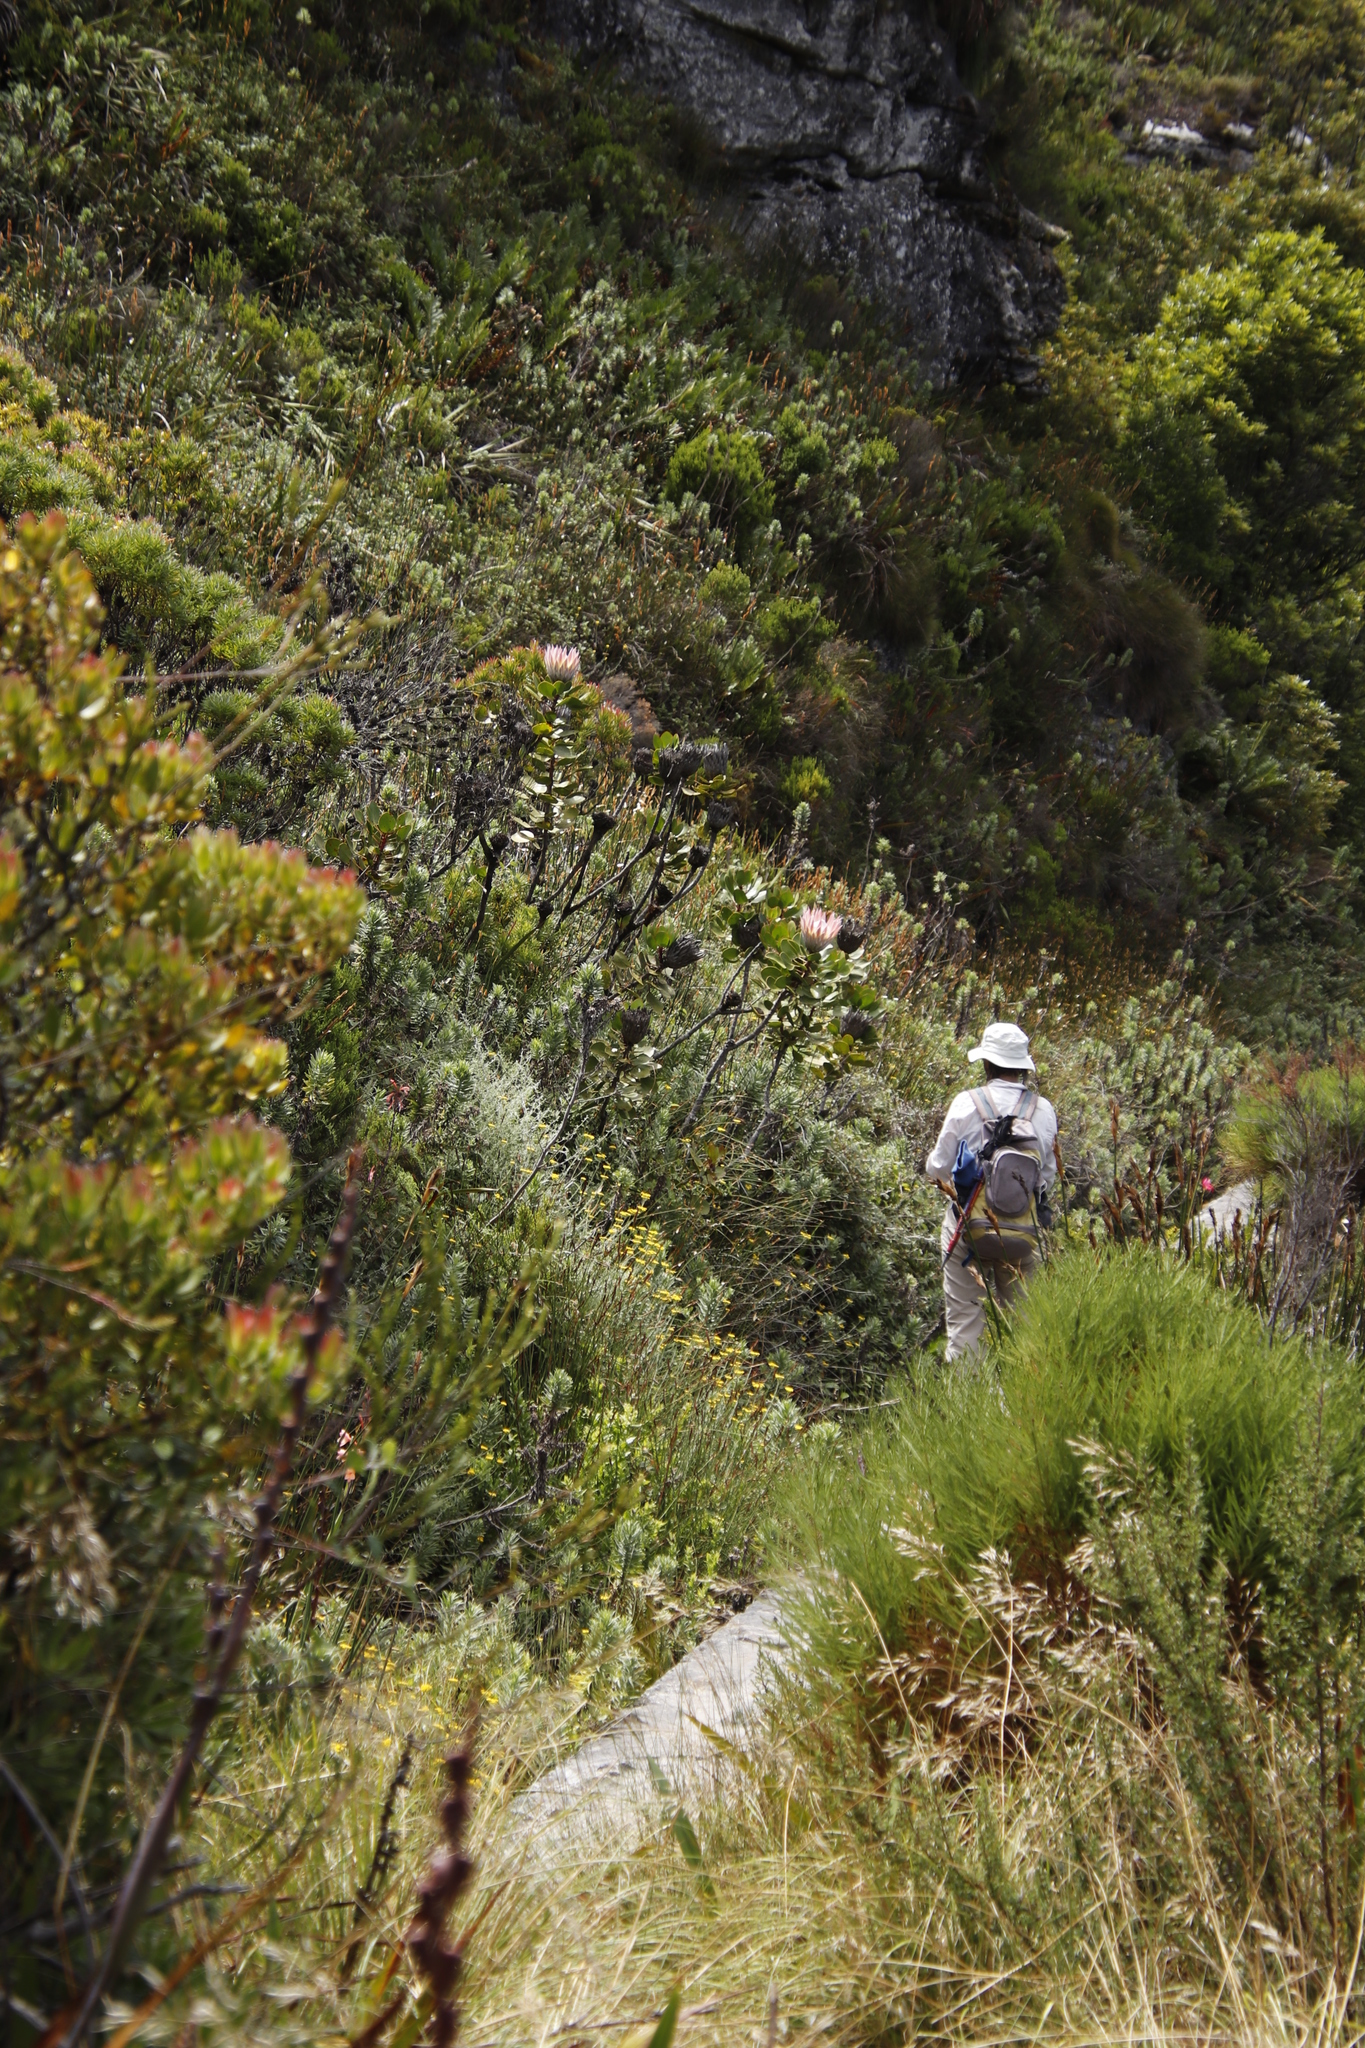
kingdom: Plantae
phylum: Tracheophyta
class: Magnoliopsida
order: Proteales
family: Proteaceae
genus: Protea
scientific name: Protea cynaroides
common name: King protea
